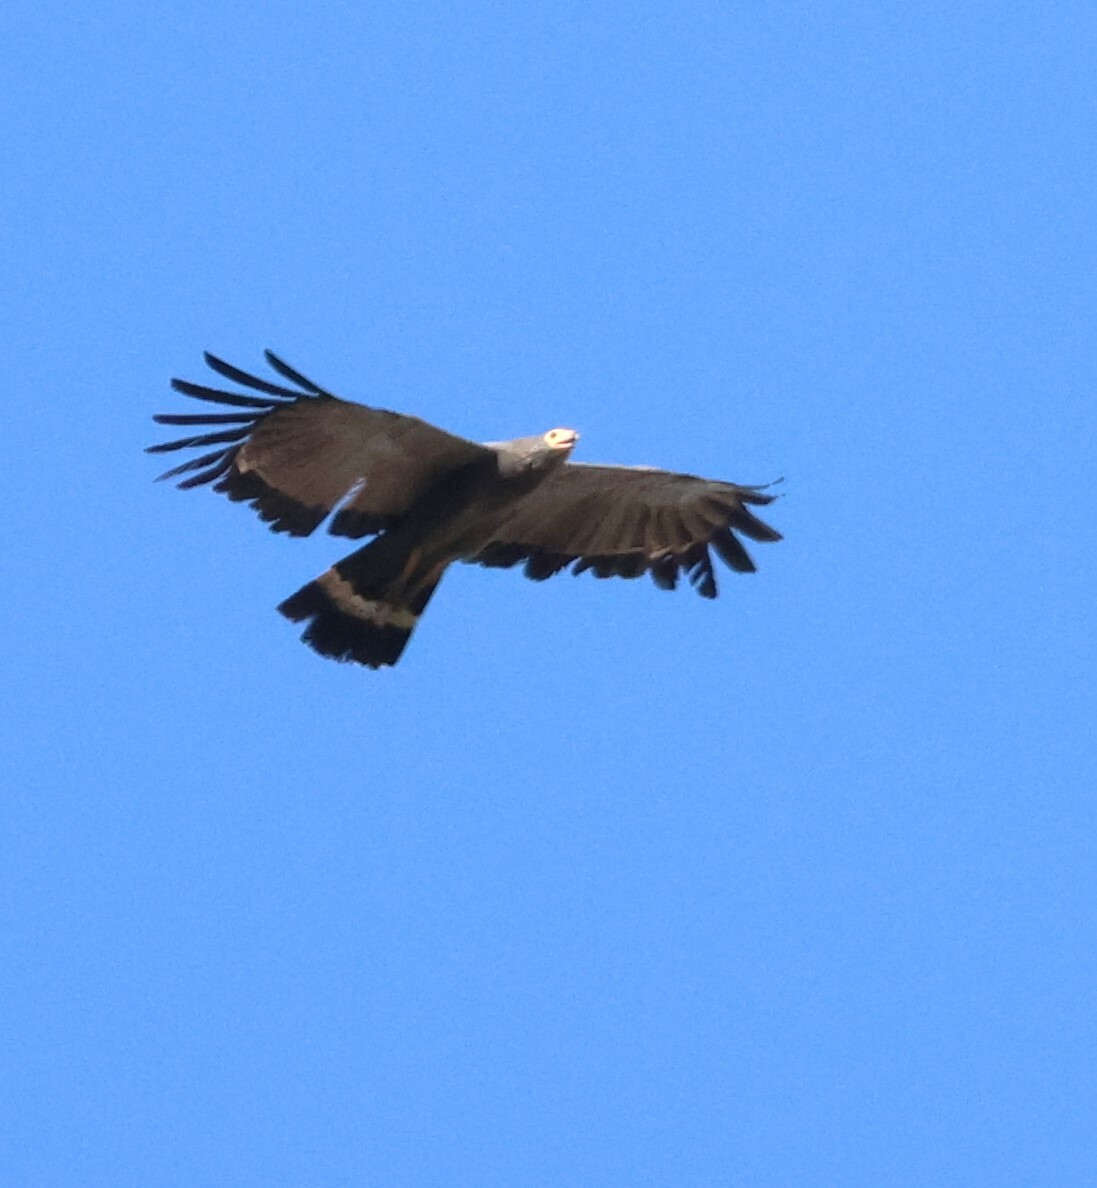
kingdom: Animalia
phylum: Chordata
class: Aves
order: Accipitriformes
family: Accipitridae
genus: Polyboroides
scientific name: Polyboroides typus
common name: African harrier-hawk
